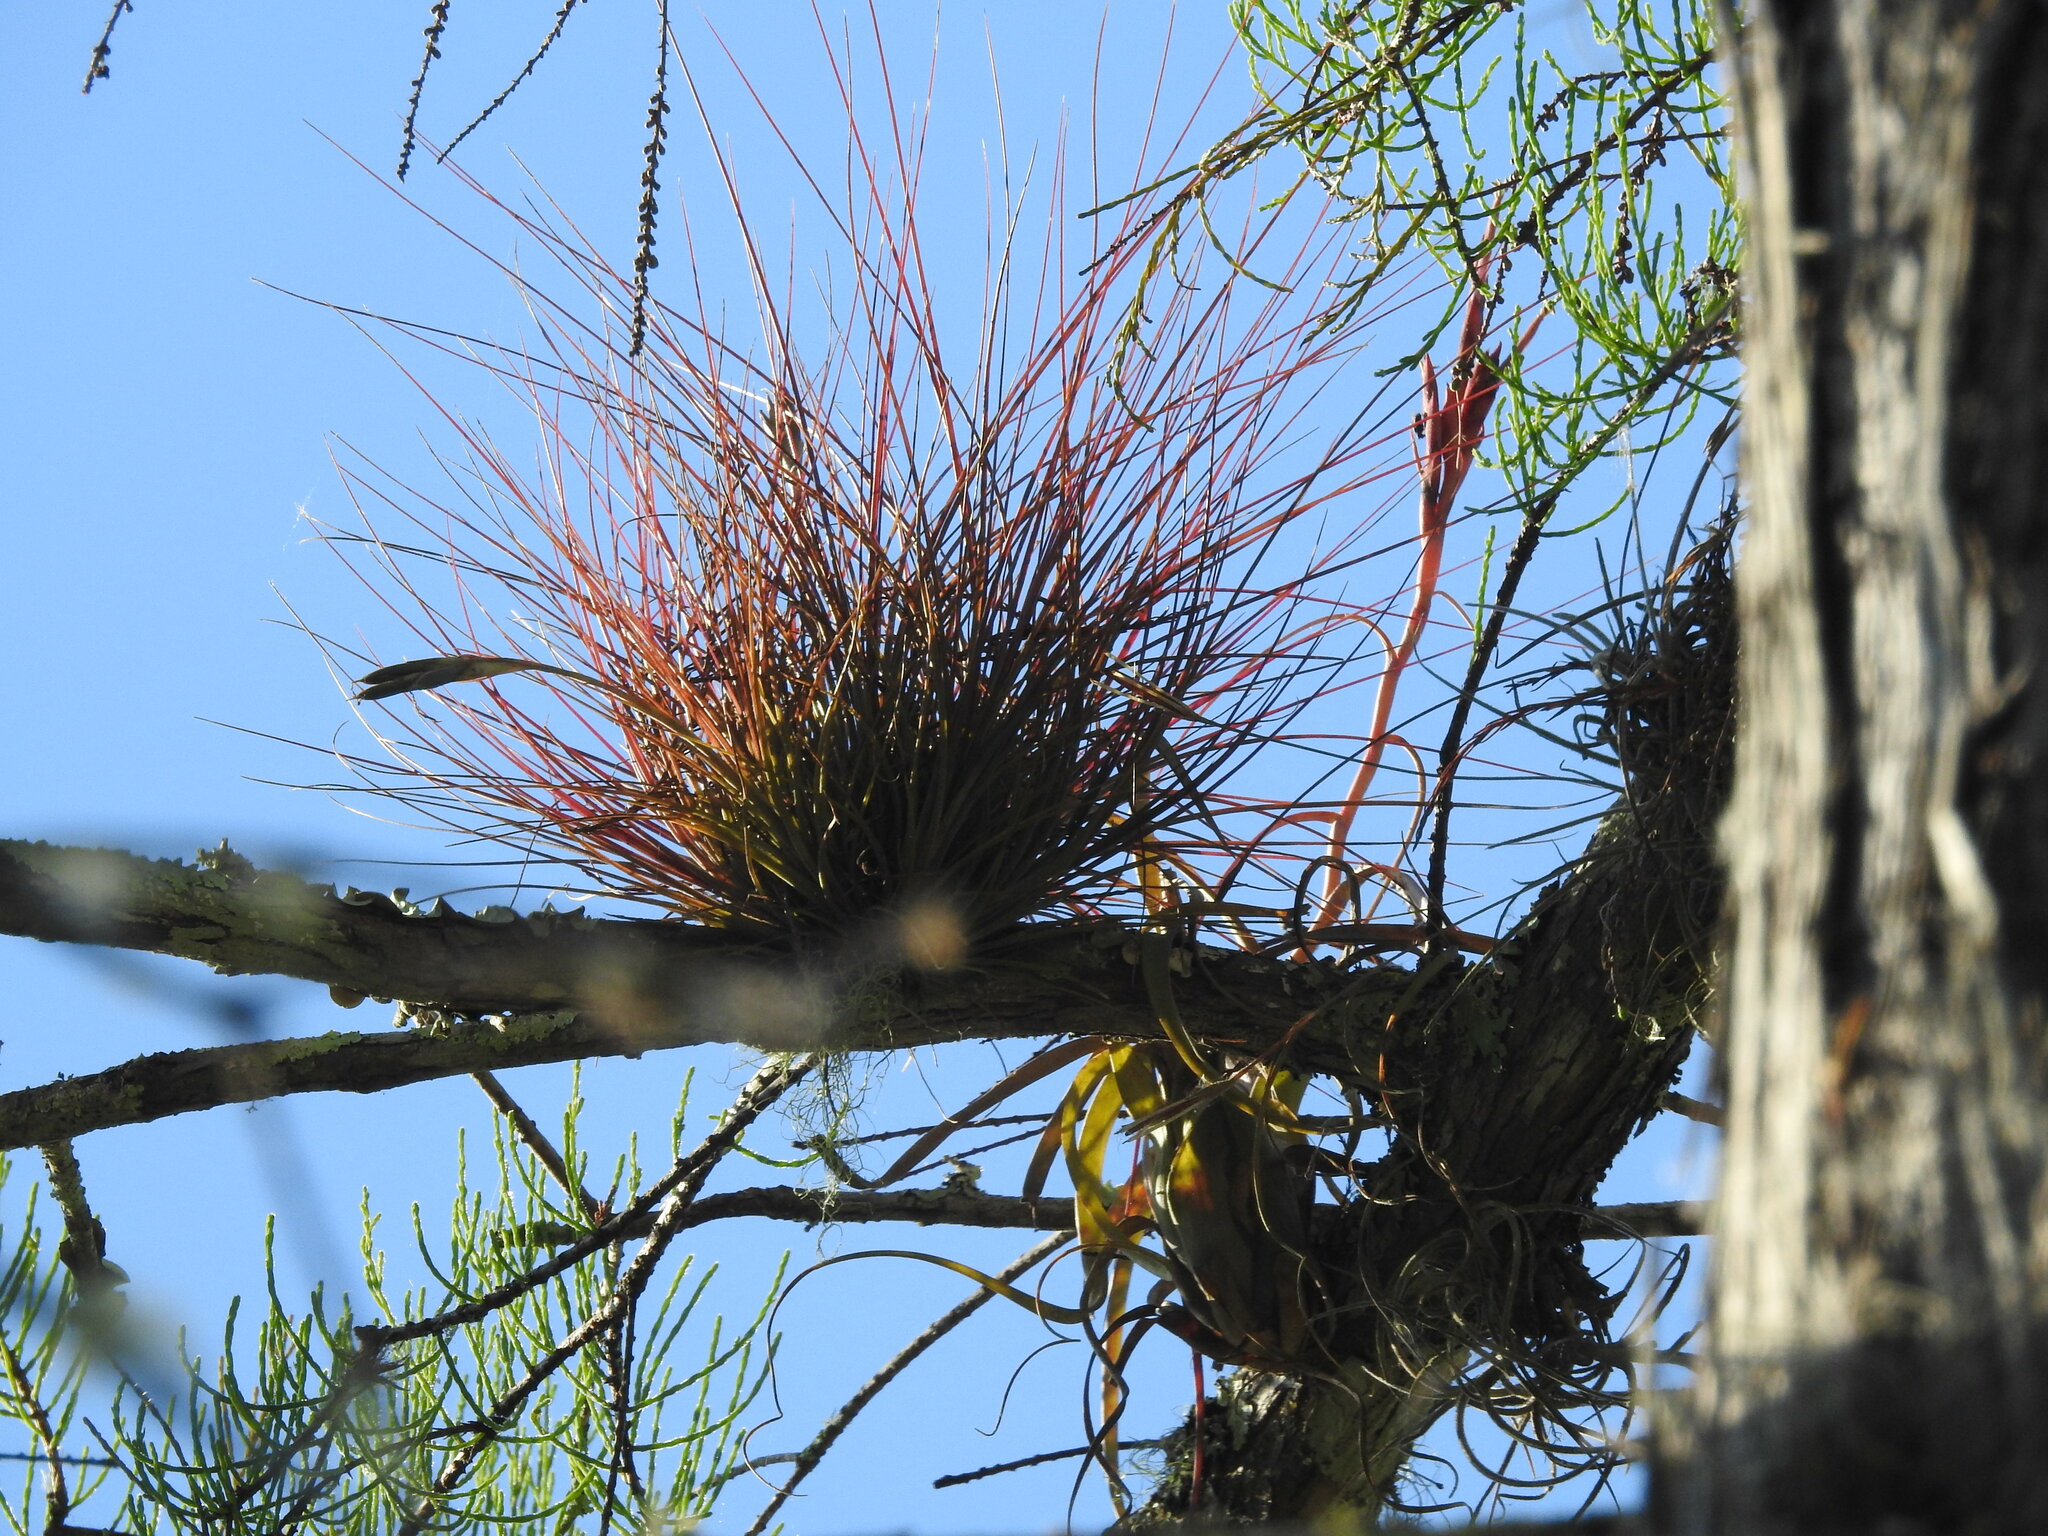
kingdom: Plantae
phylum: Tracheophyta
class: Liliopsida
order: Poales
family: Bromeliaceae
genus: Tillandsia
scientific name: Tillandsia setacea
